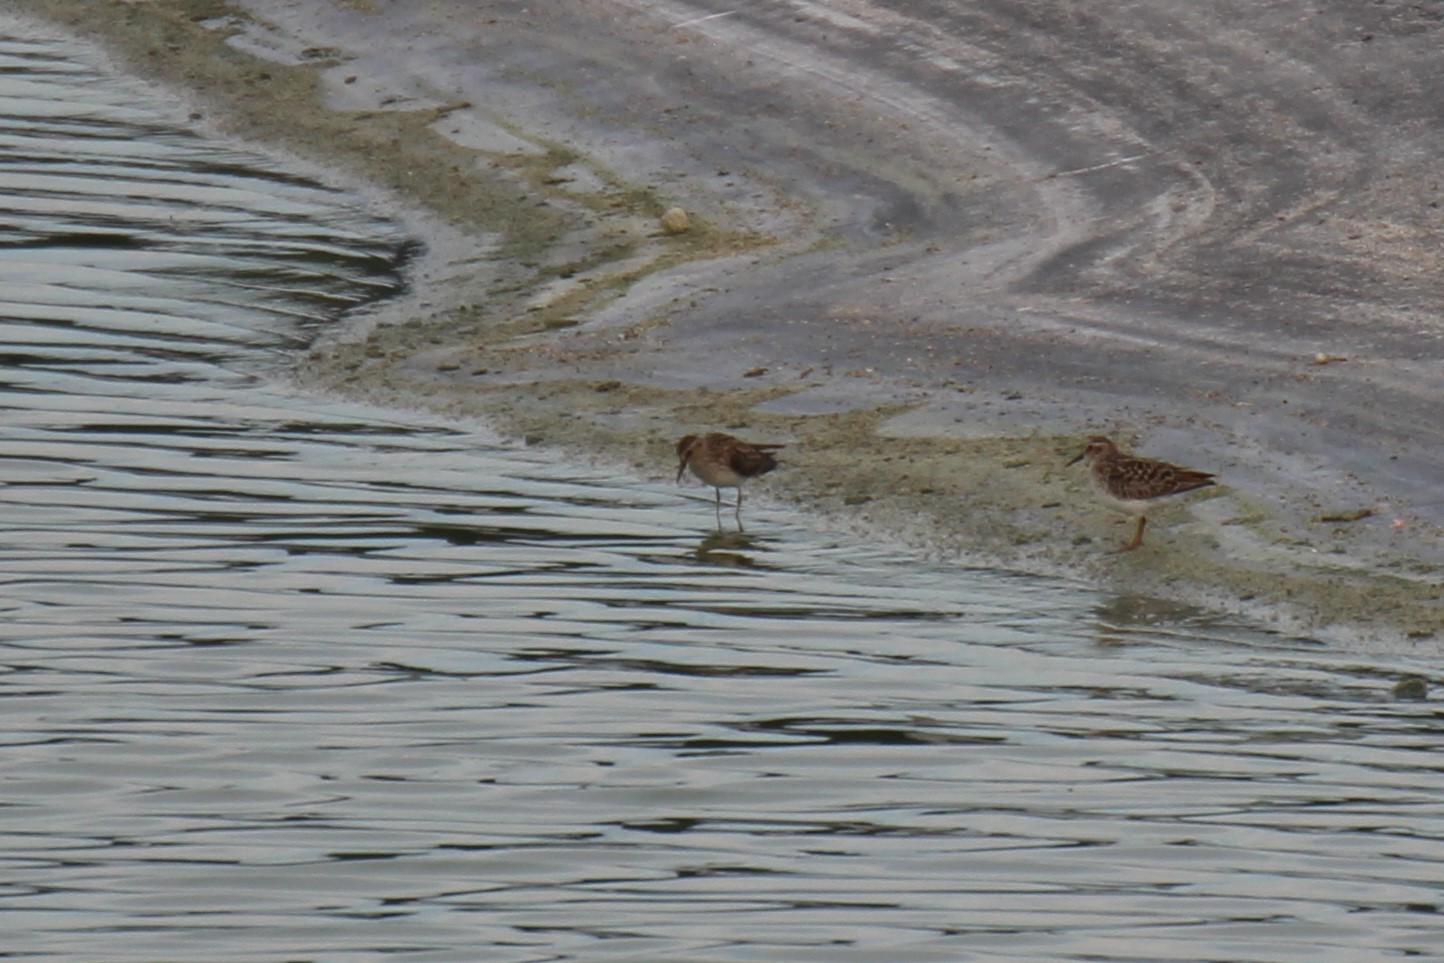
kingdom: Animalia
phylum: Chordata
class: Aves
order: Charadriiformes
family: Scolopacidae
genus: Calidris
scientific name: Calidris minutilla
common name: Least sandpiper
